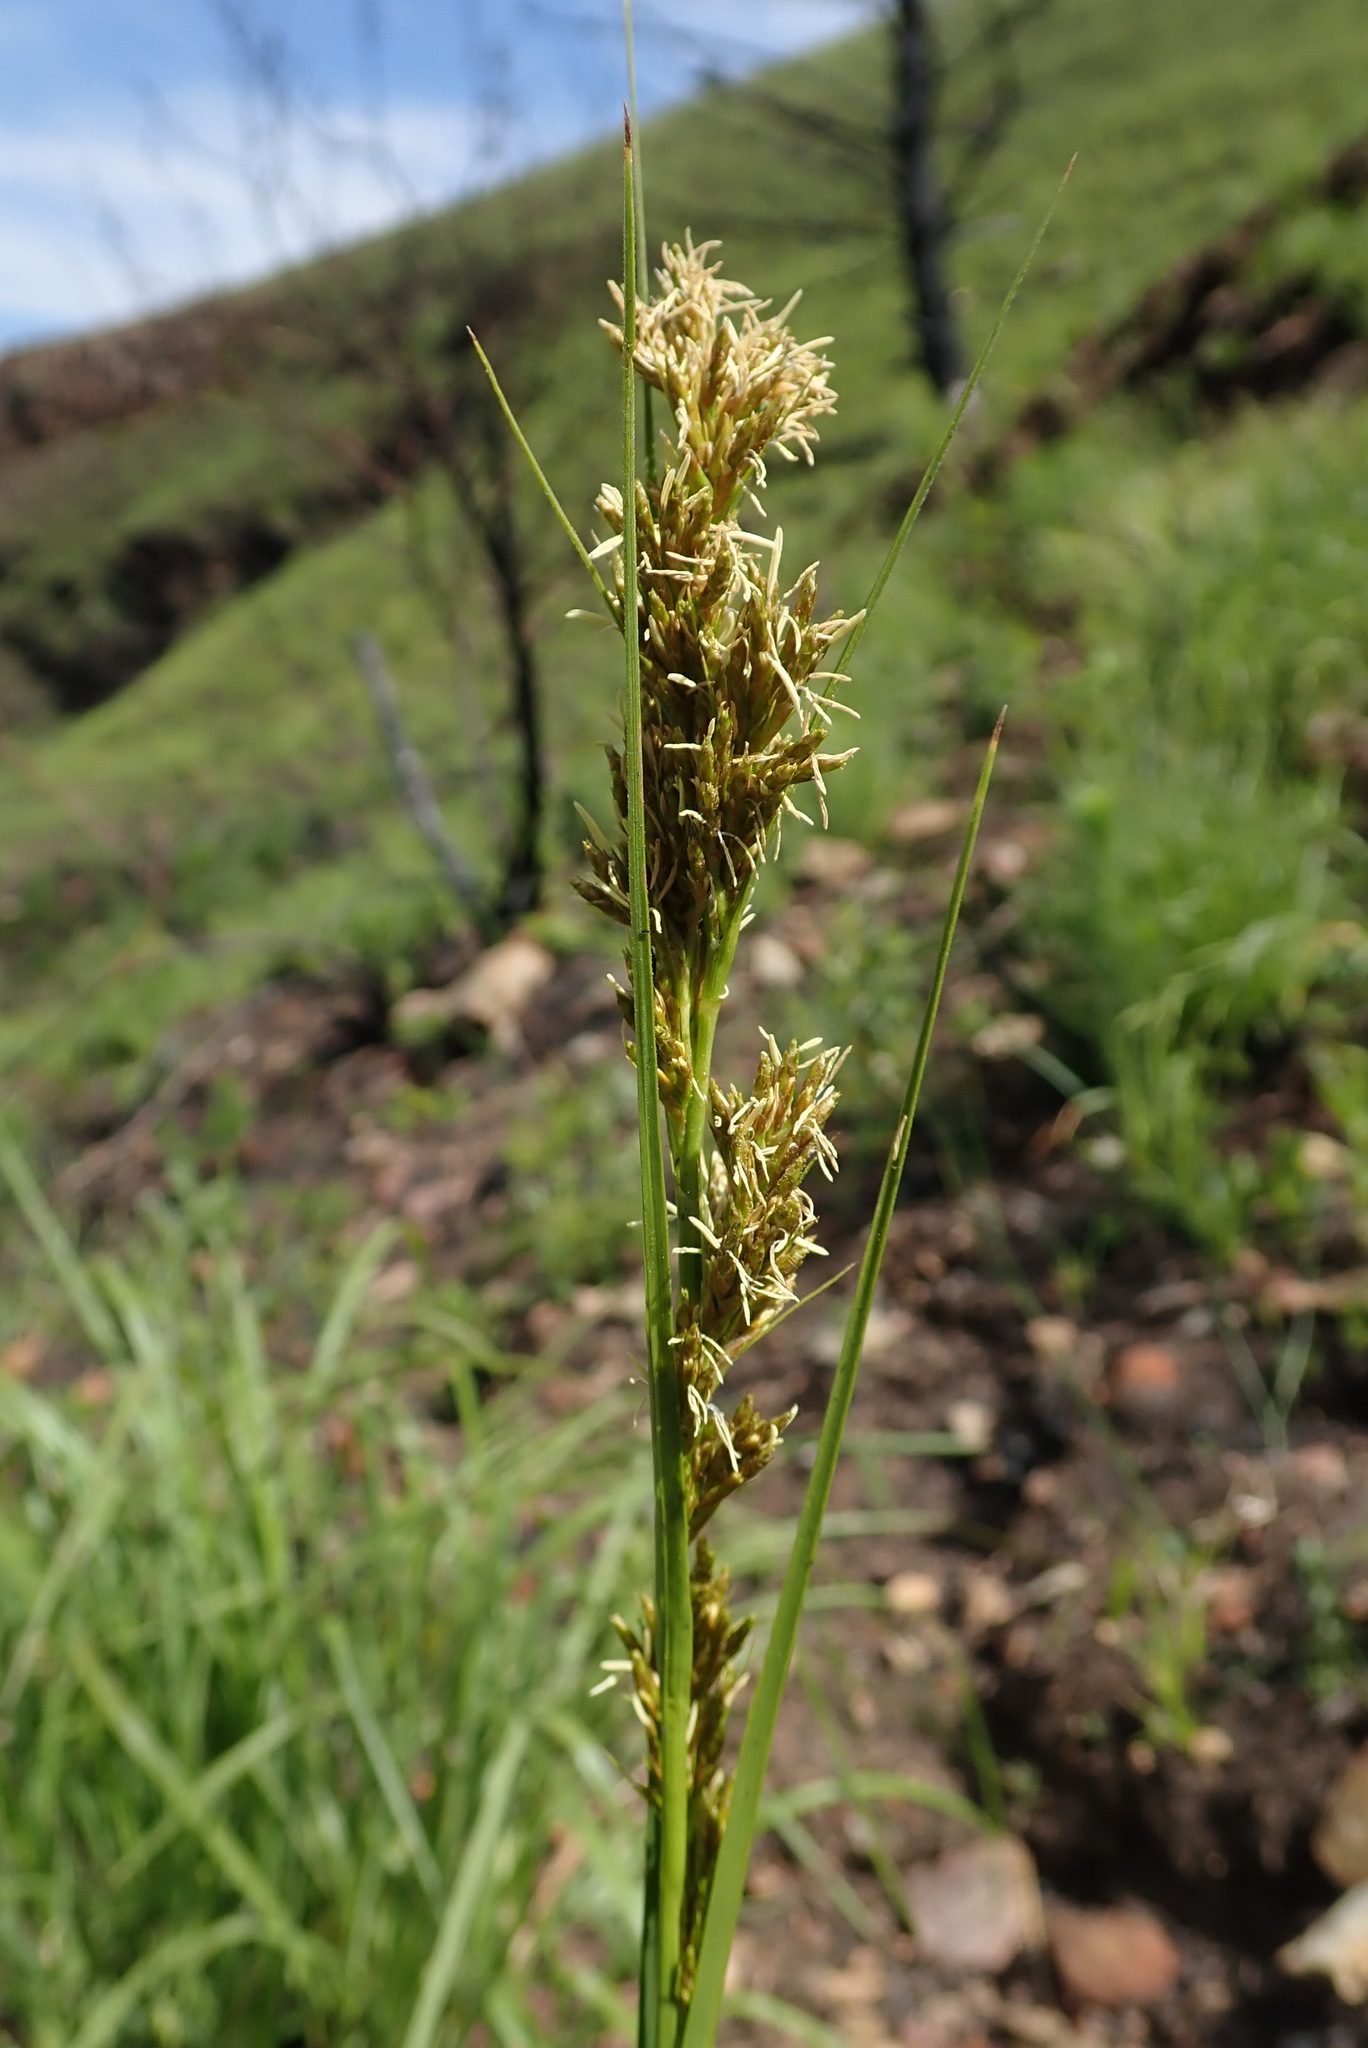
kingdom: Plantae
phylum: Tracheophyta
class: Liliopsida
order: Poales
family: Cyperaceae
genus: Carex
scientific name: Carex schweickerdtii
